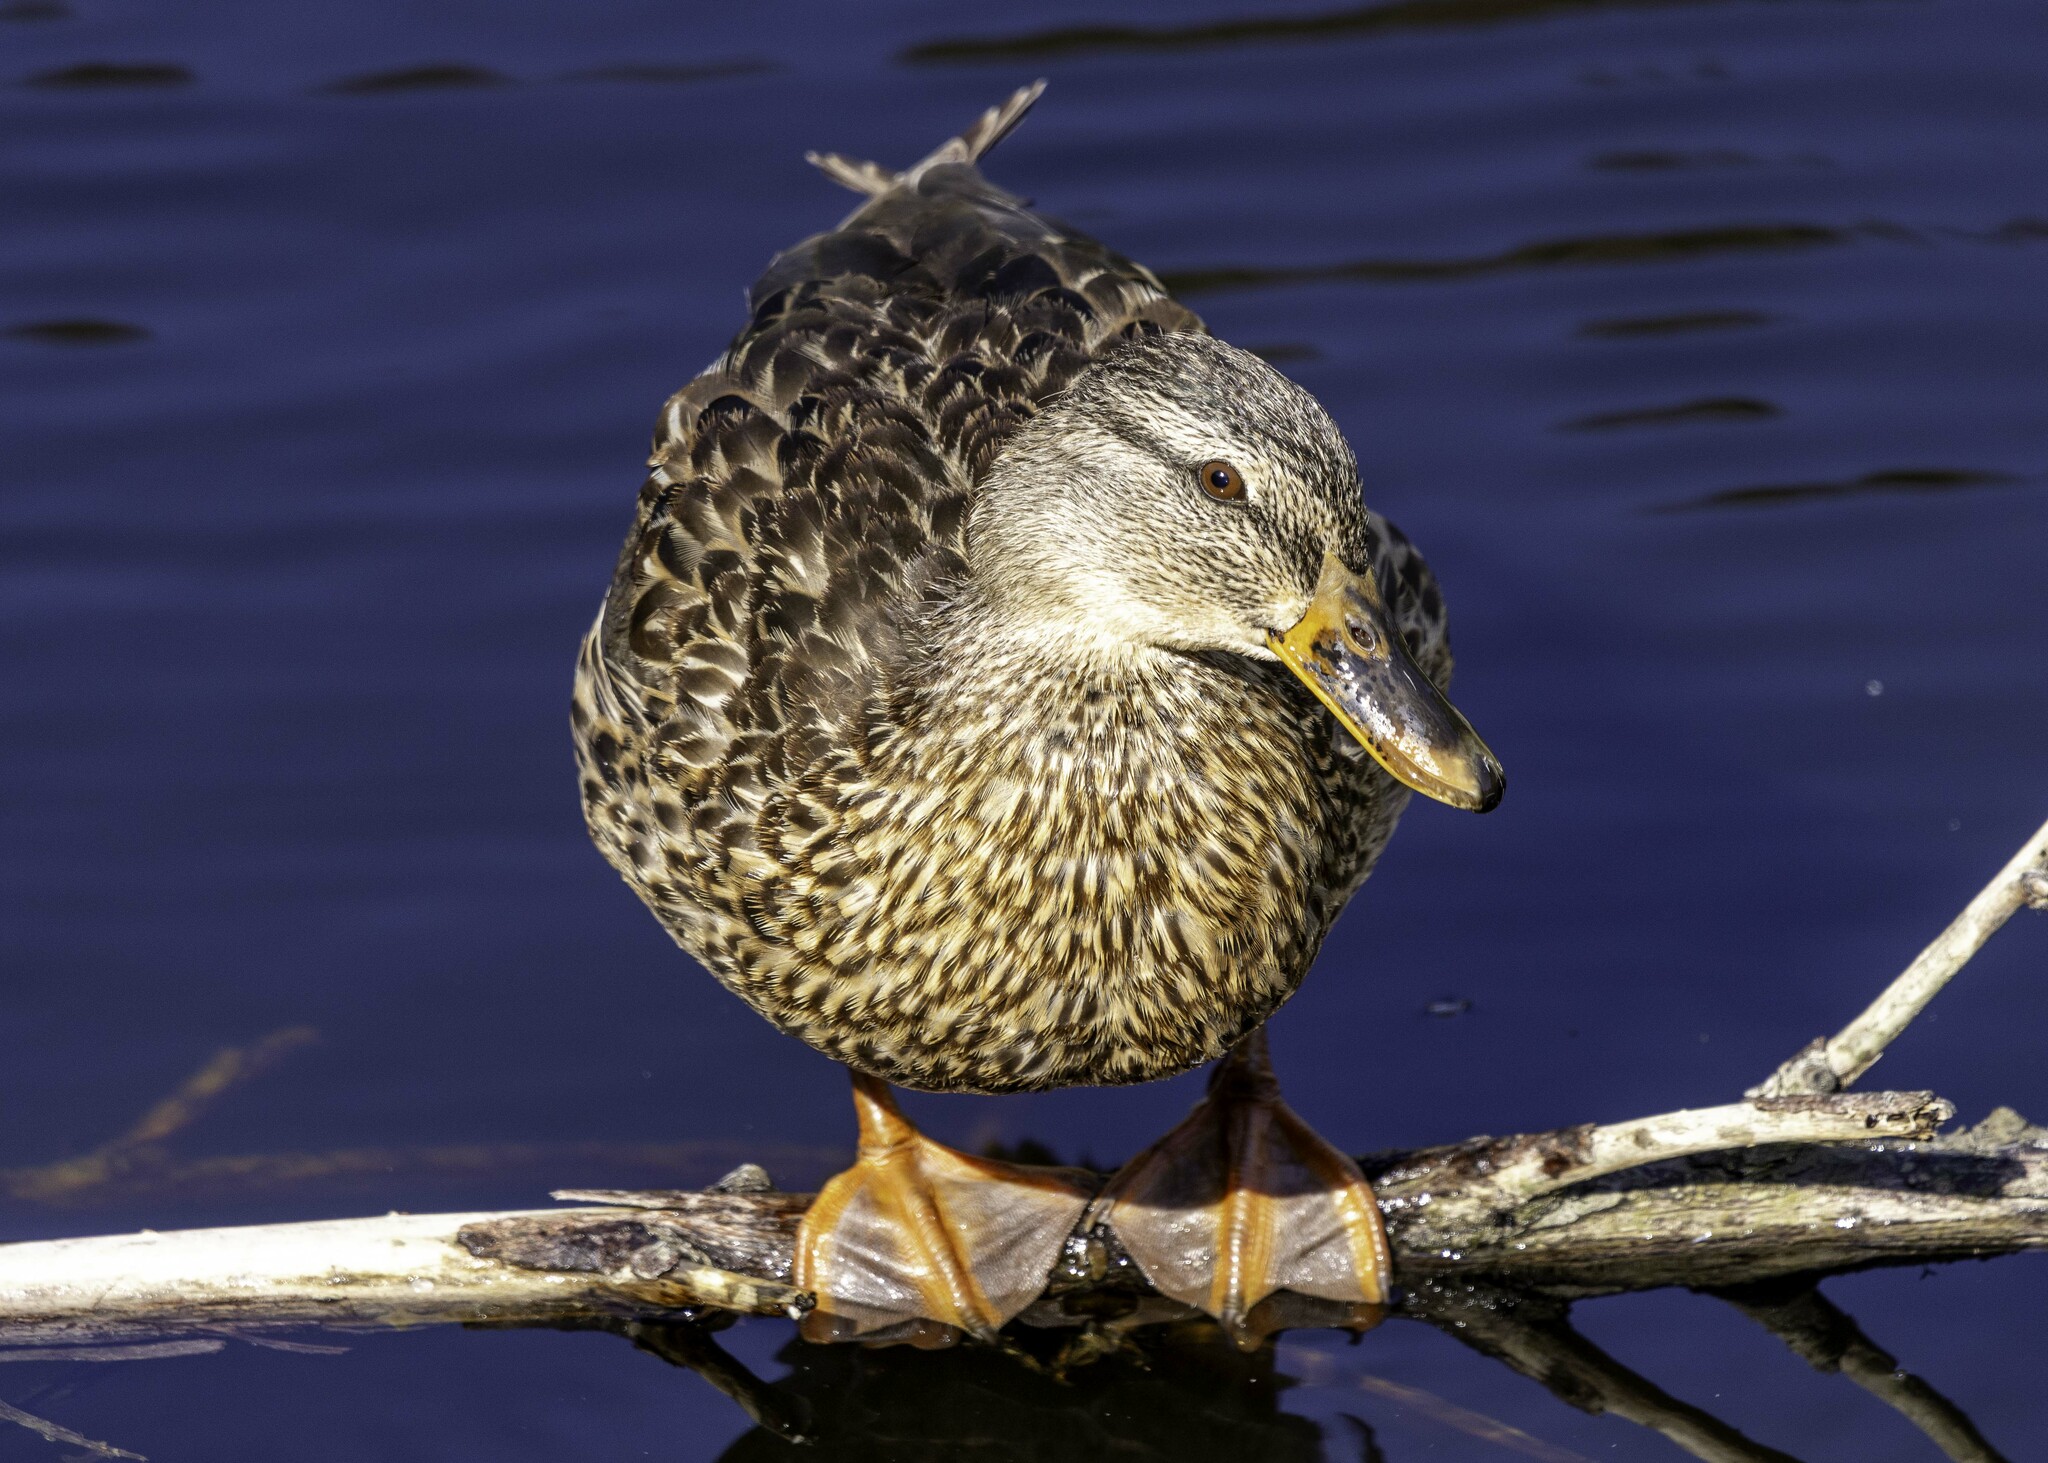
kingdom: Animalia
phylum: Chordata
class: Aves
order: Anseriformes
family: Anatidae
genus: Anas
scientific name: Anas platyrhynchos
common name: Mallard
